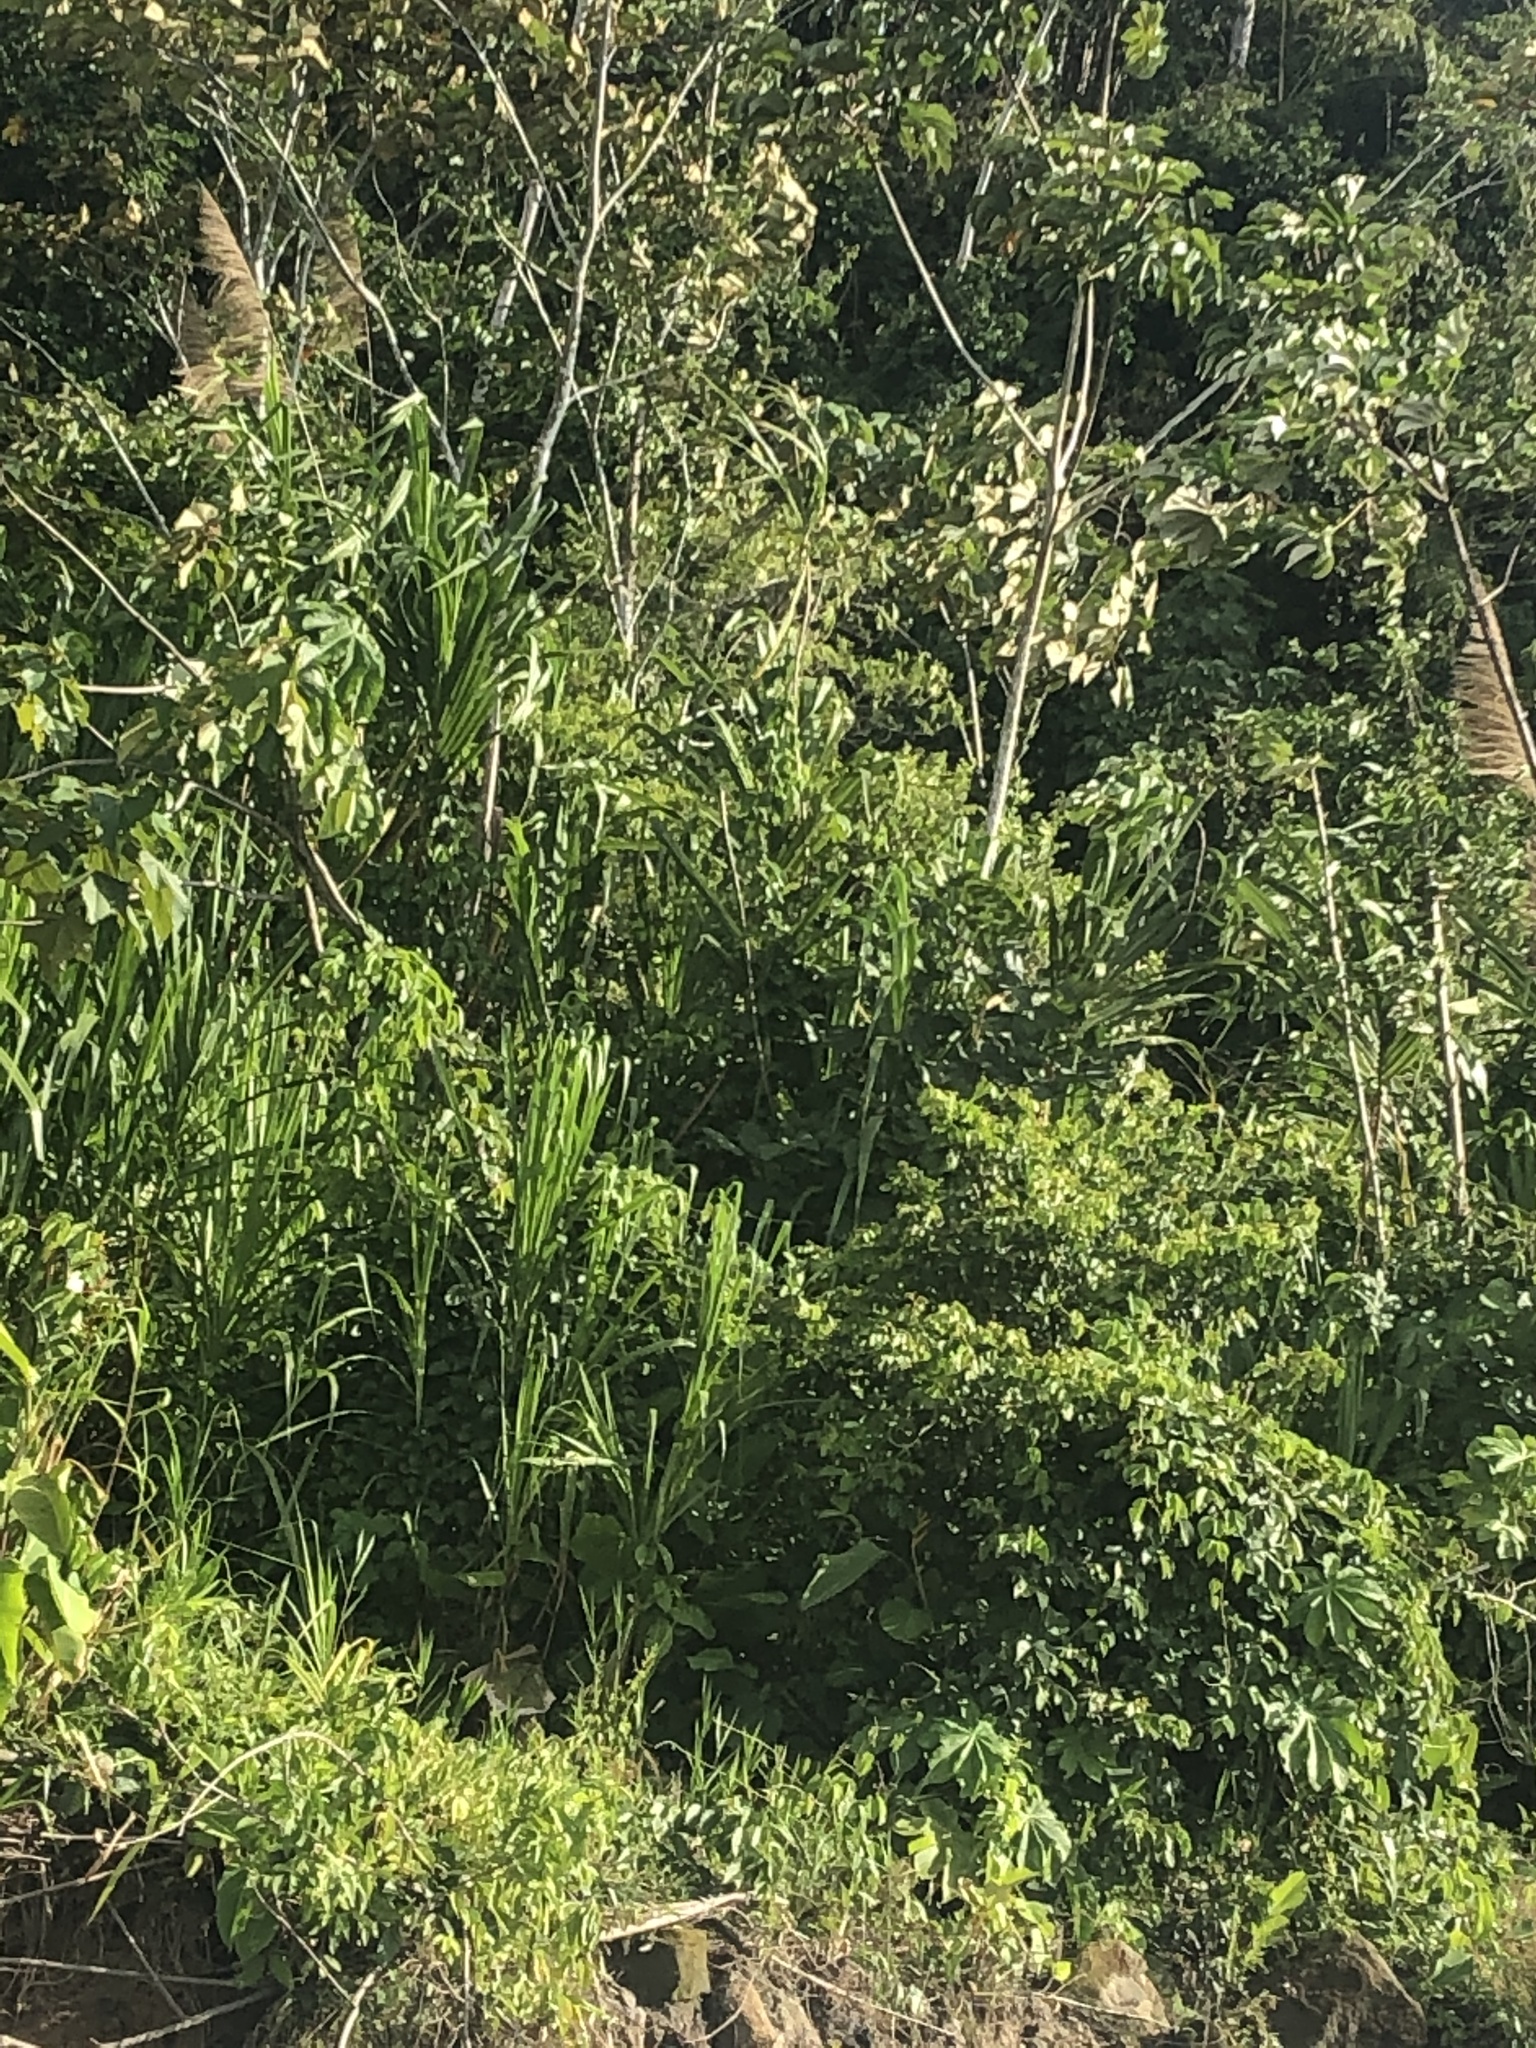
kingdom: Plantae
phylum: Tracheophyta
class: Liliopsida
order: Poales
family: Poaceae
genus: Gynerium
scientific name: Gynerium sagittatum
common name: Wild cane
